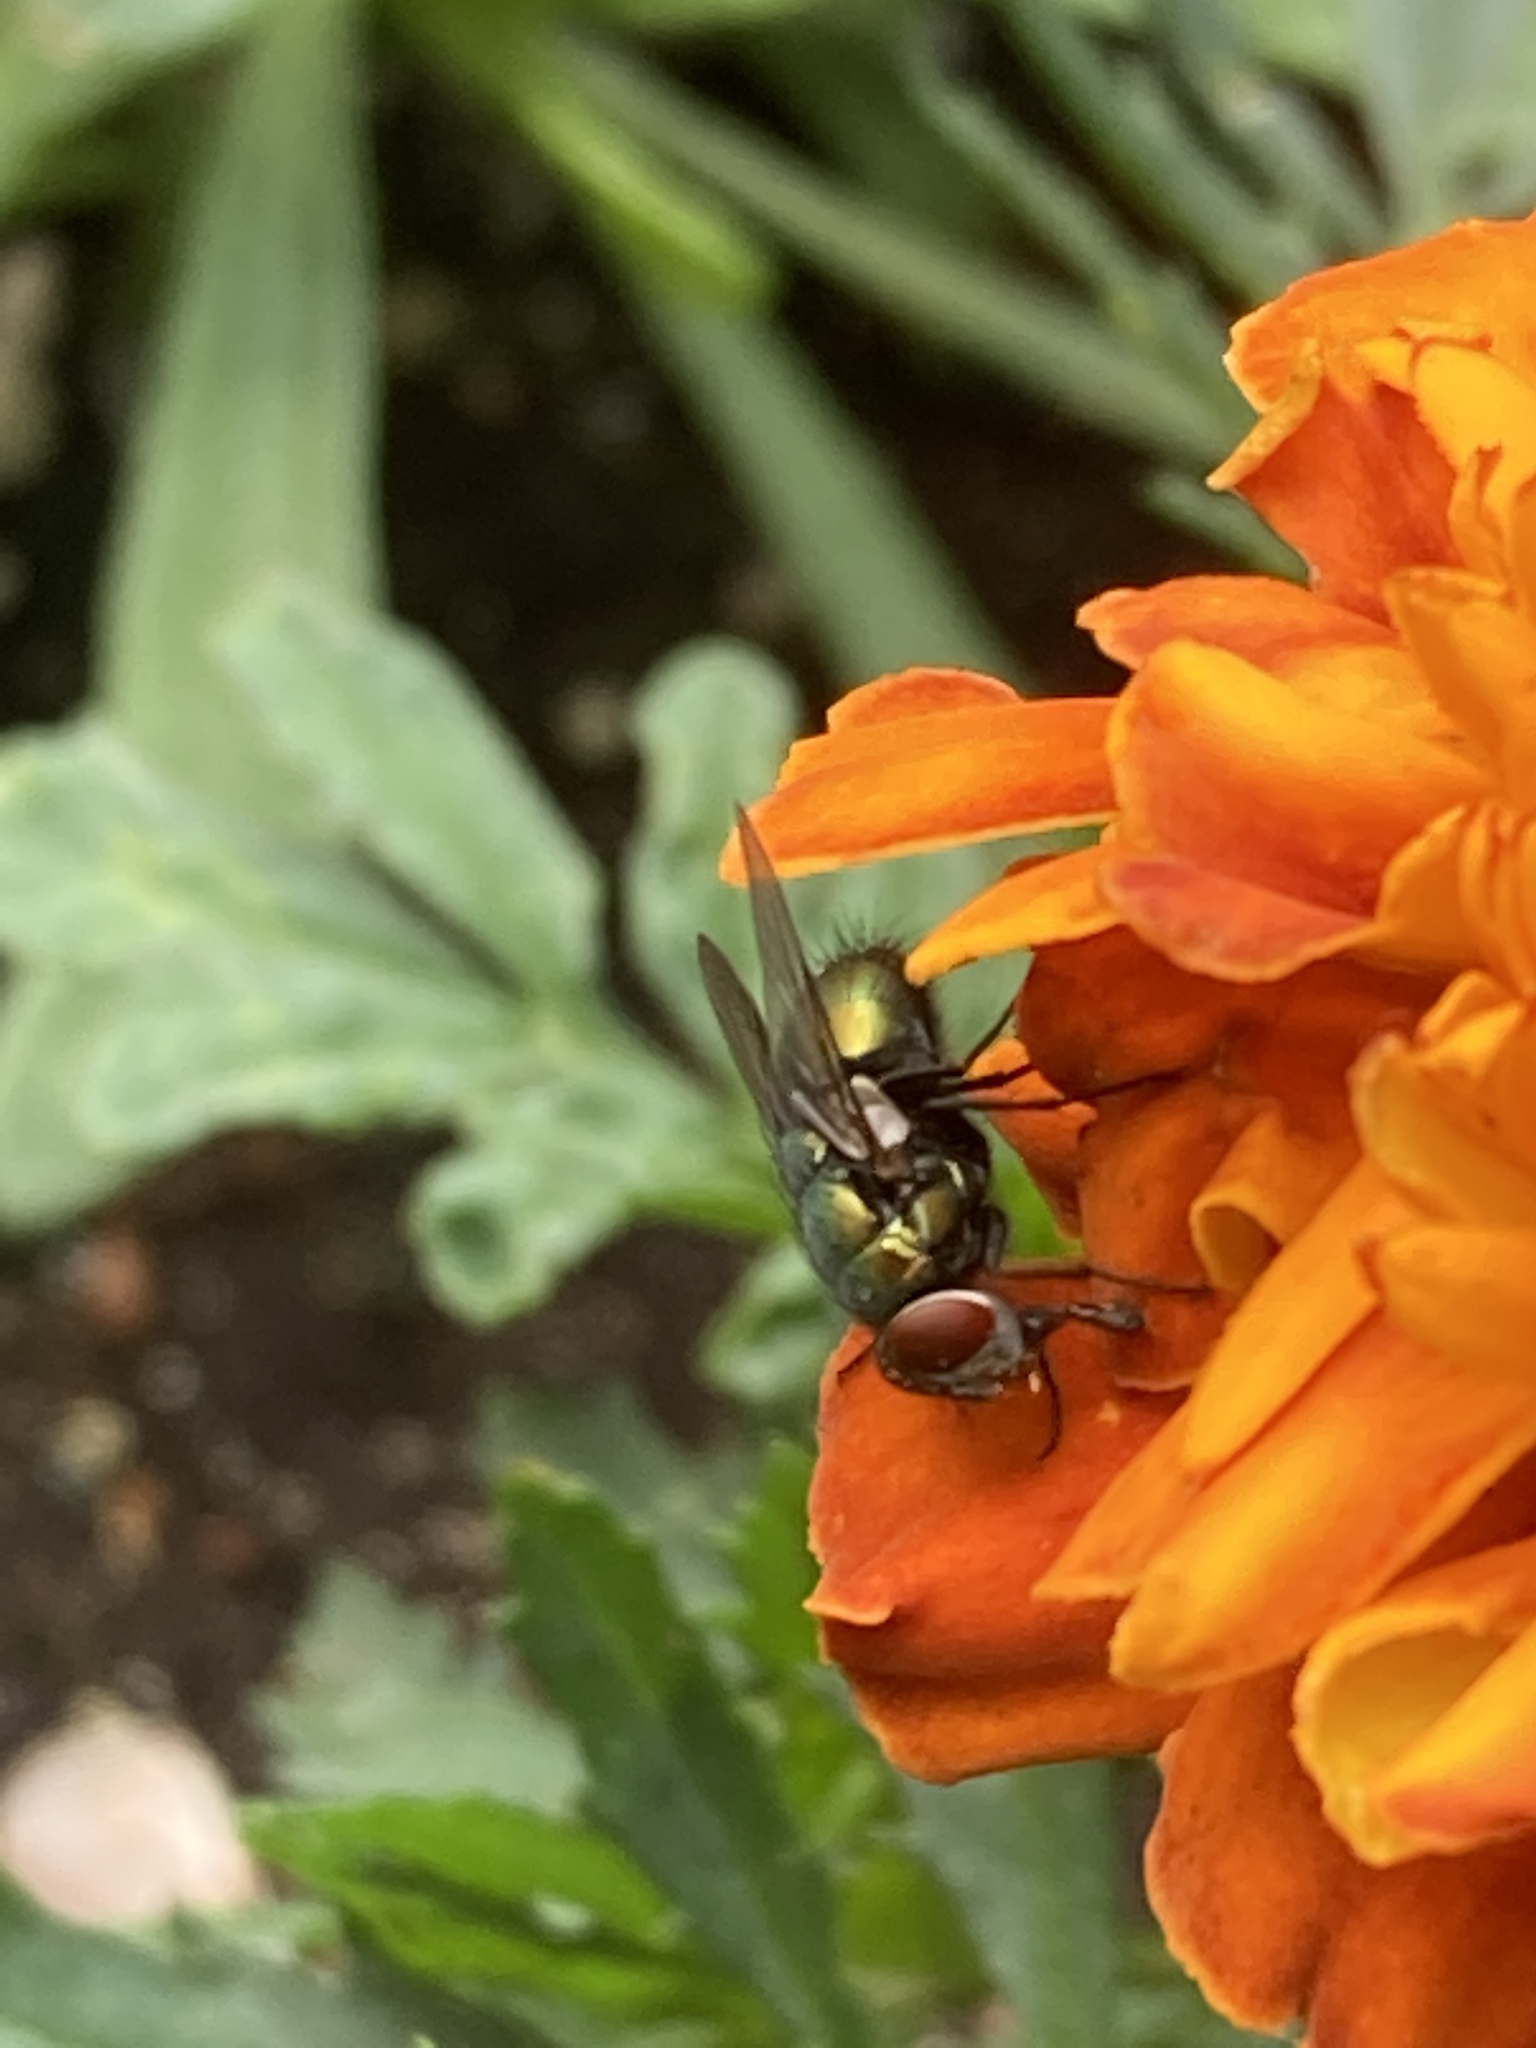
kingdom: Animalia
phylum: Arthropoda
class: Insecta
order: Diptera
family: Calliphoridae
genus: Lucilia
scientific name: Lucilia sericata
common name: Blow fly
